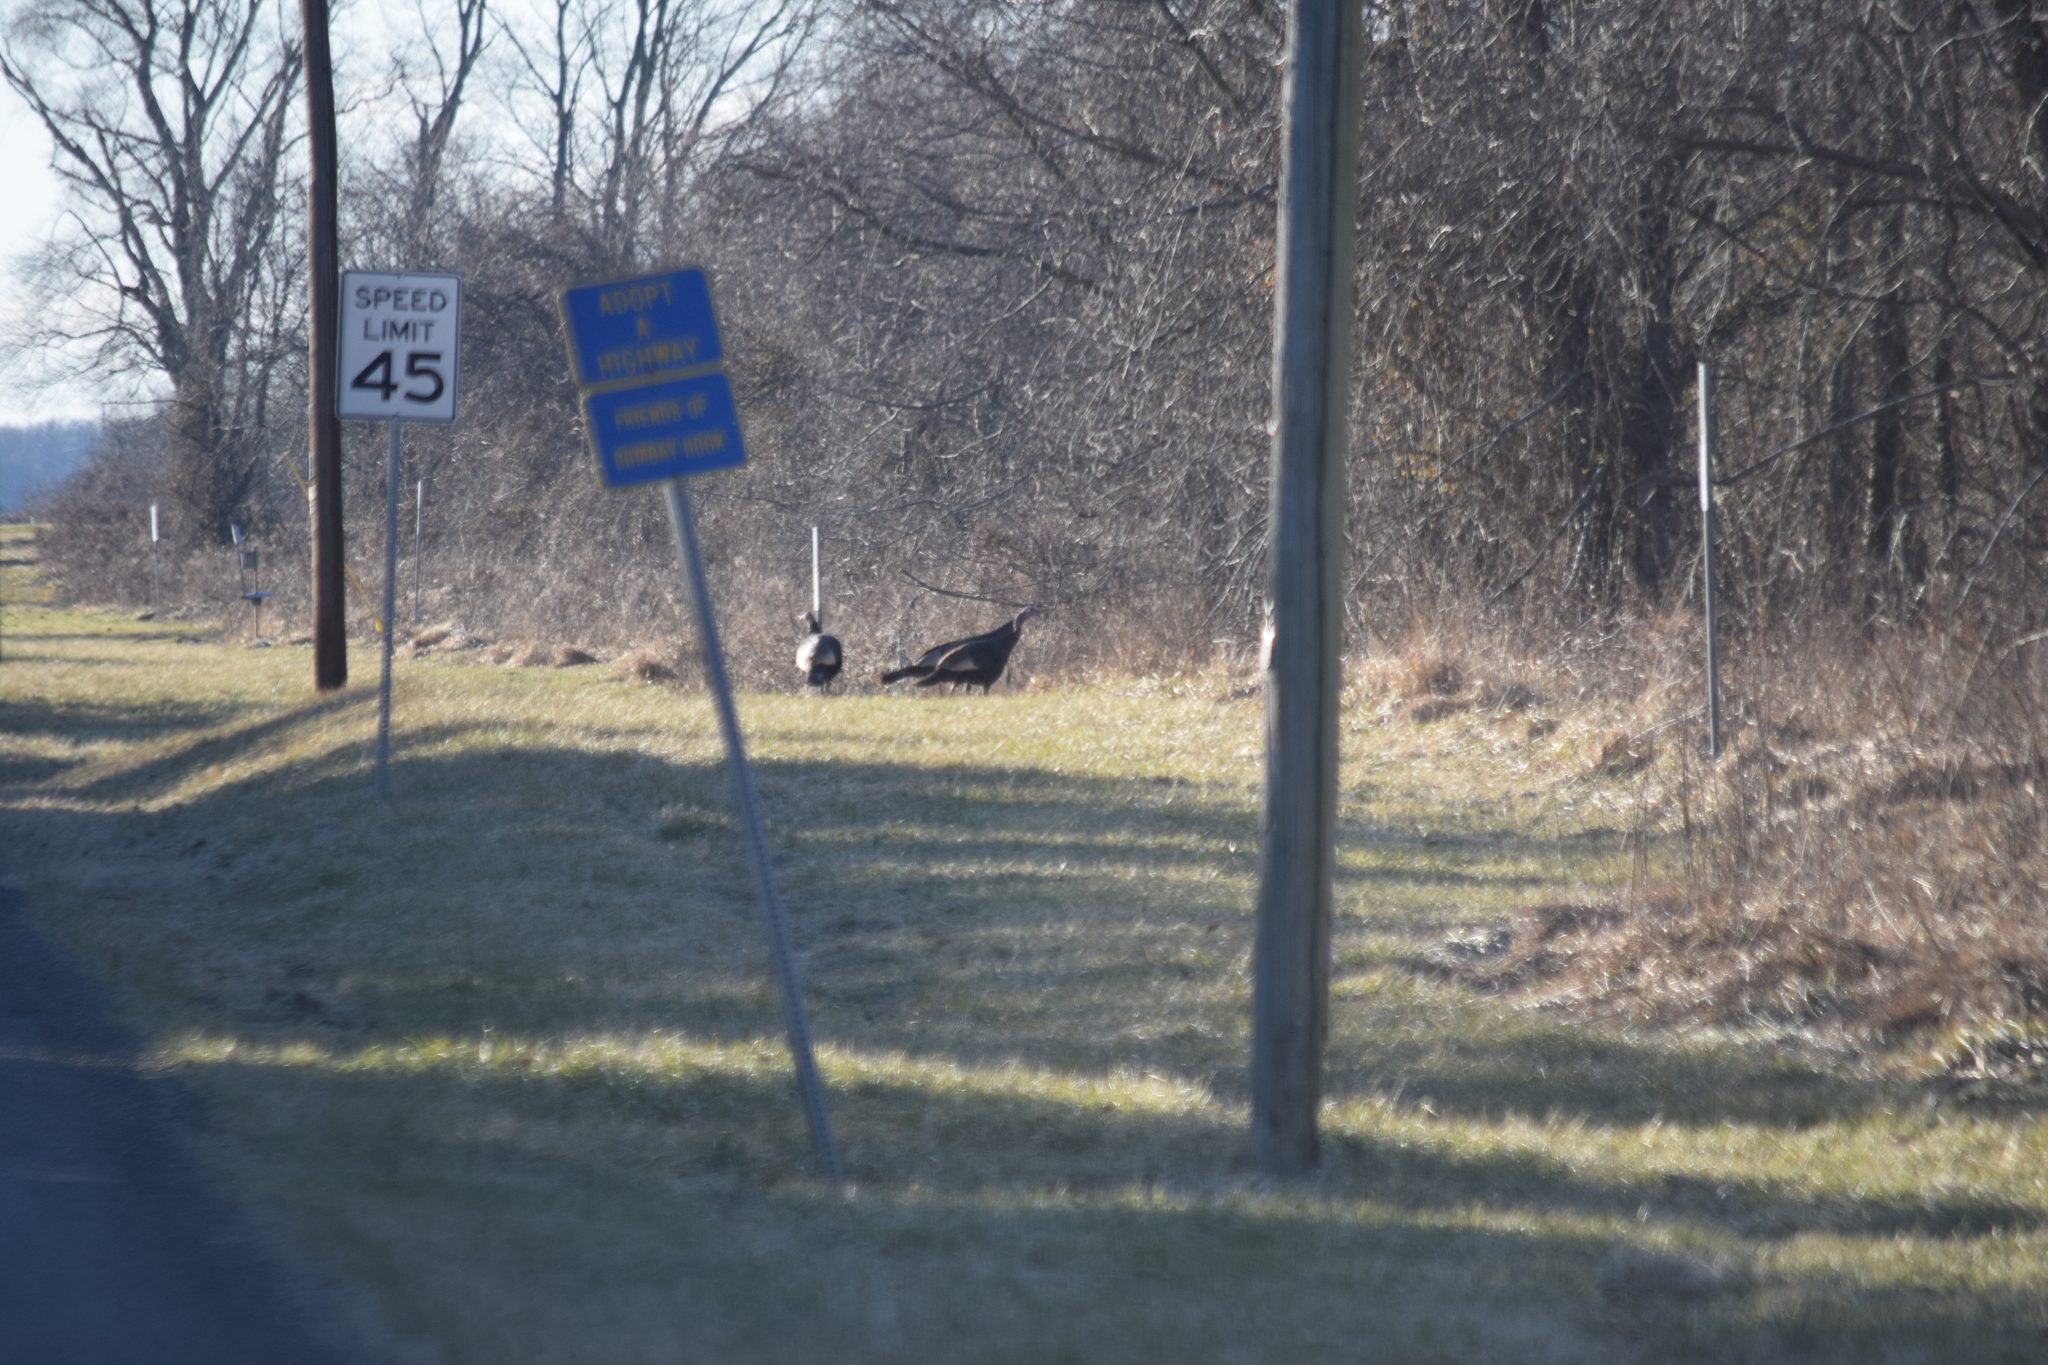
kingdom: Animalia
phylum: Chordata
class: Aves
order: Galliformes
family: Phasianidae
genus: Meleagris
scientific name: Meleagris gallopavo
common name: Wild turkey
